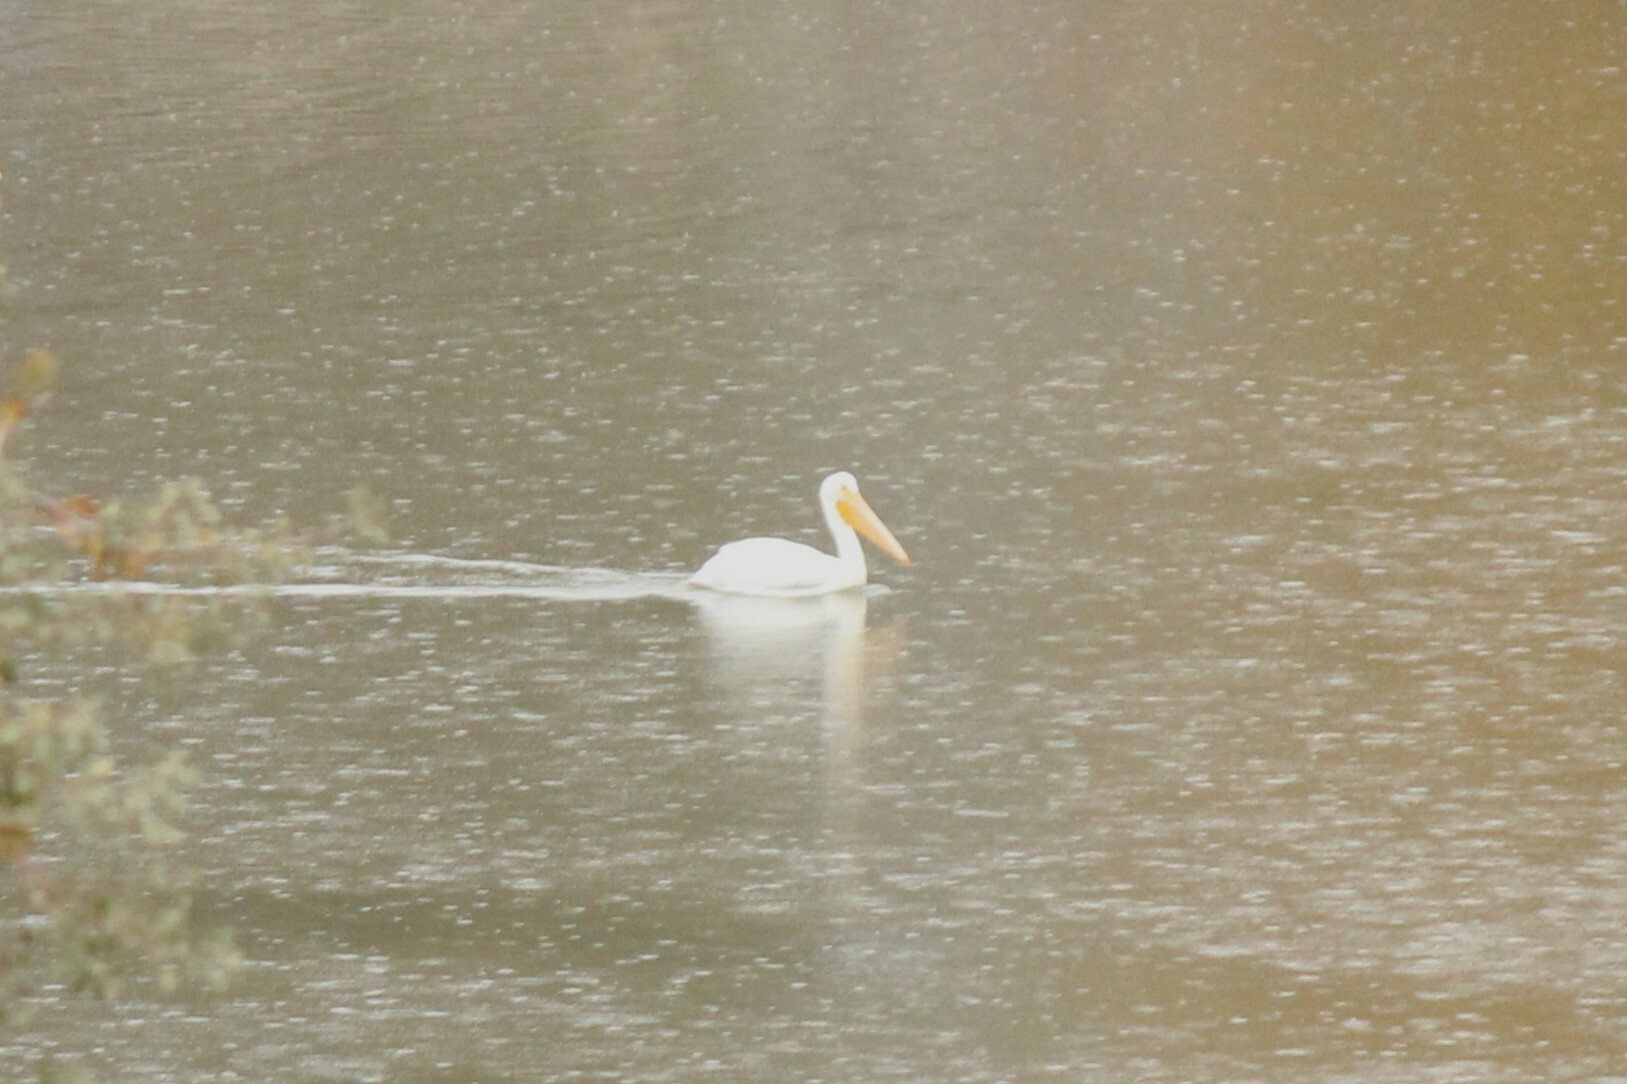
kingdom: Animalia
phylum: Chordata
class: Aves
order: Pelecaniformes
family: Pelecanidae
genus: Pelecanus
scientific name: Pelecanus erythrorhynchos
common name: American white pelican
